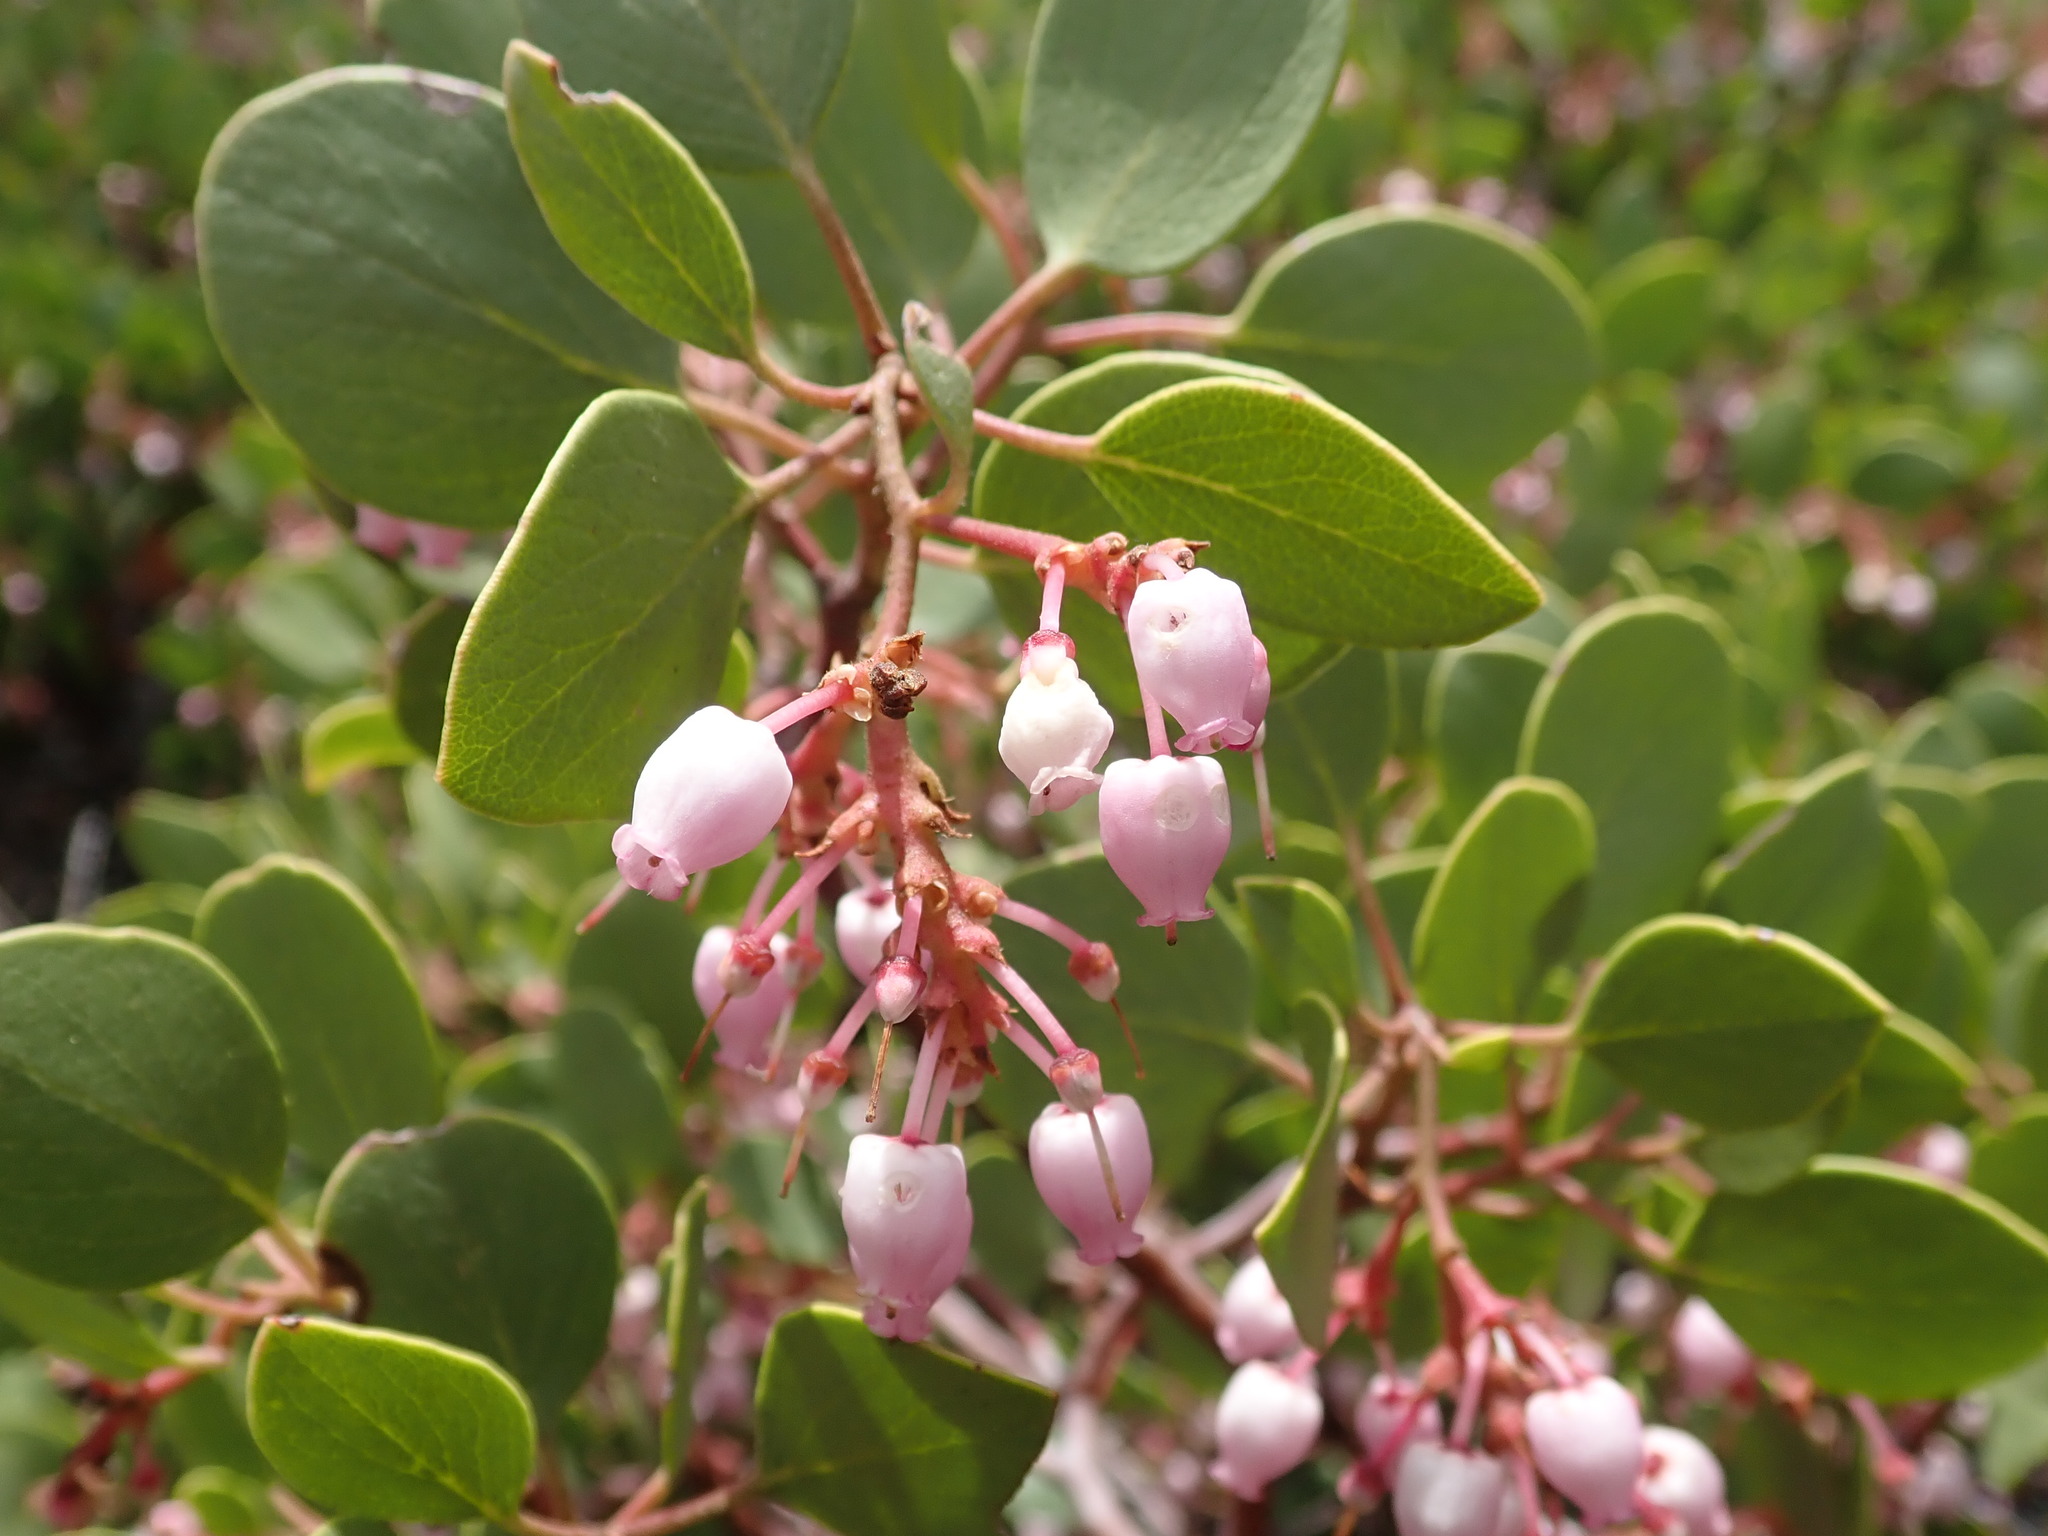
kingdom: Plantae
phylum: Tracheophyta
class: Magnoliopsida
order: Ericales
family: Ericaceae
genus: Arctostaphylos
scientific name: Arctostaphylos patula
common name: Green-leaf manzanita
